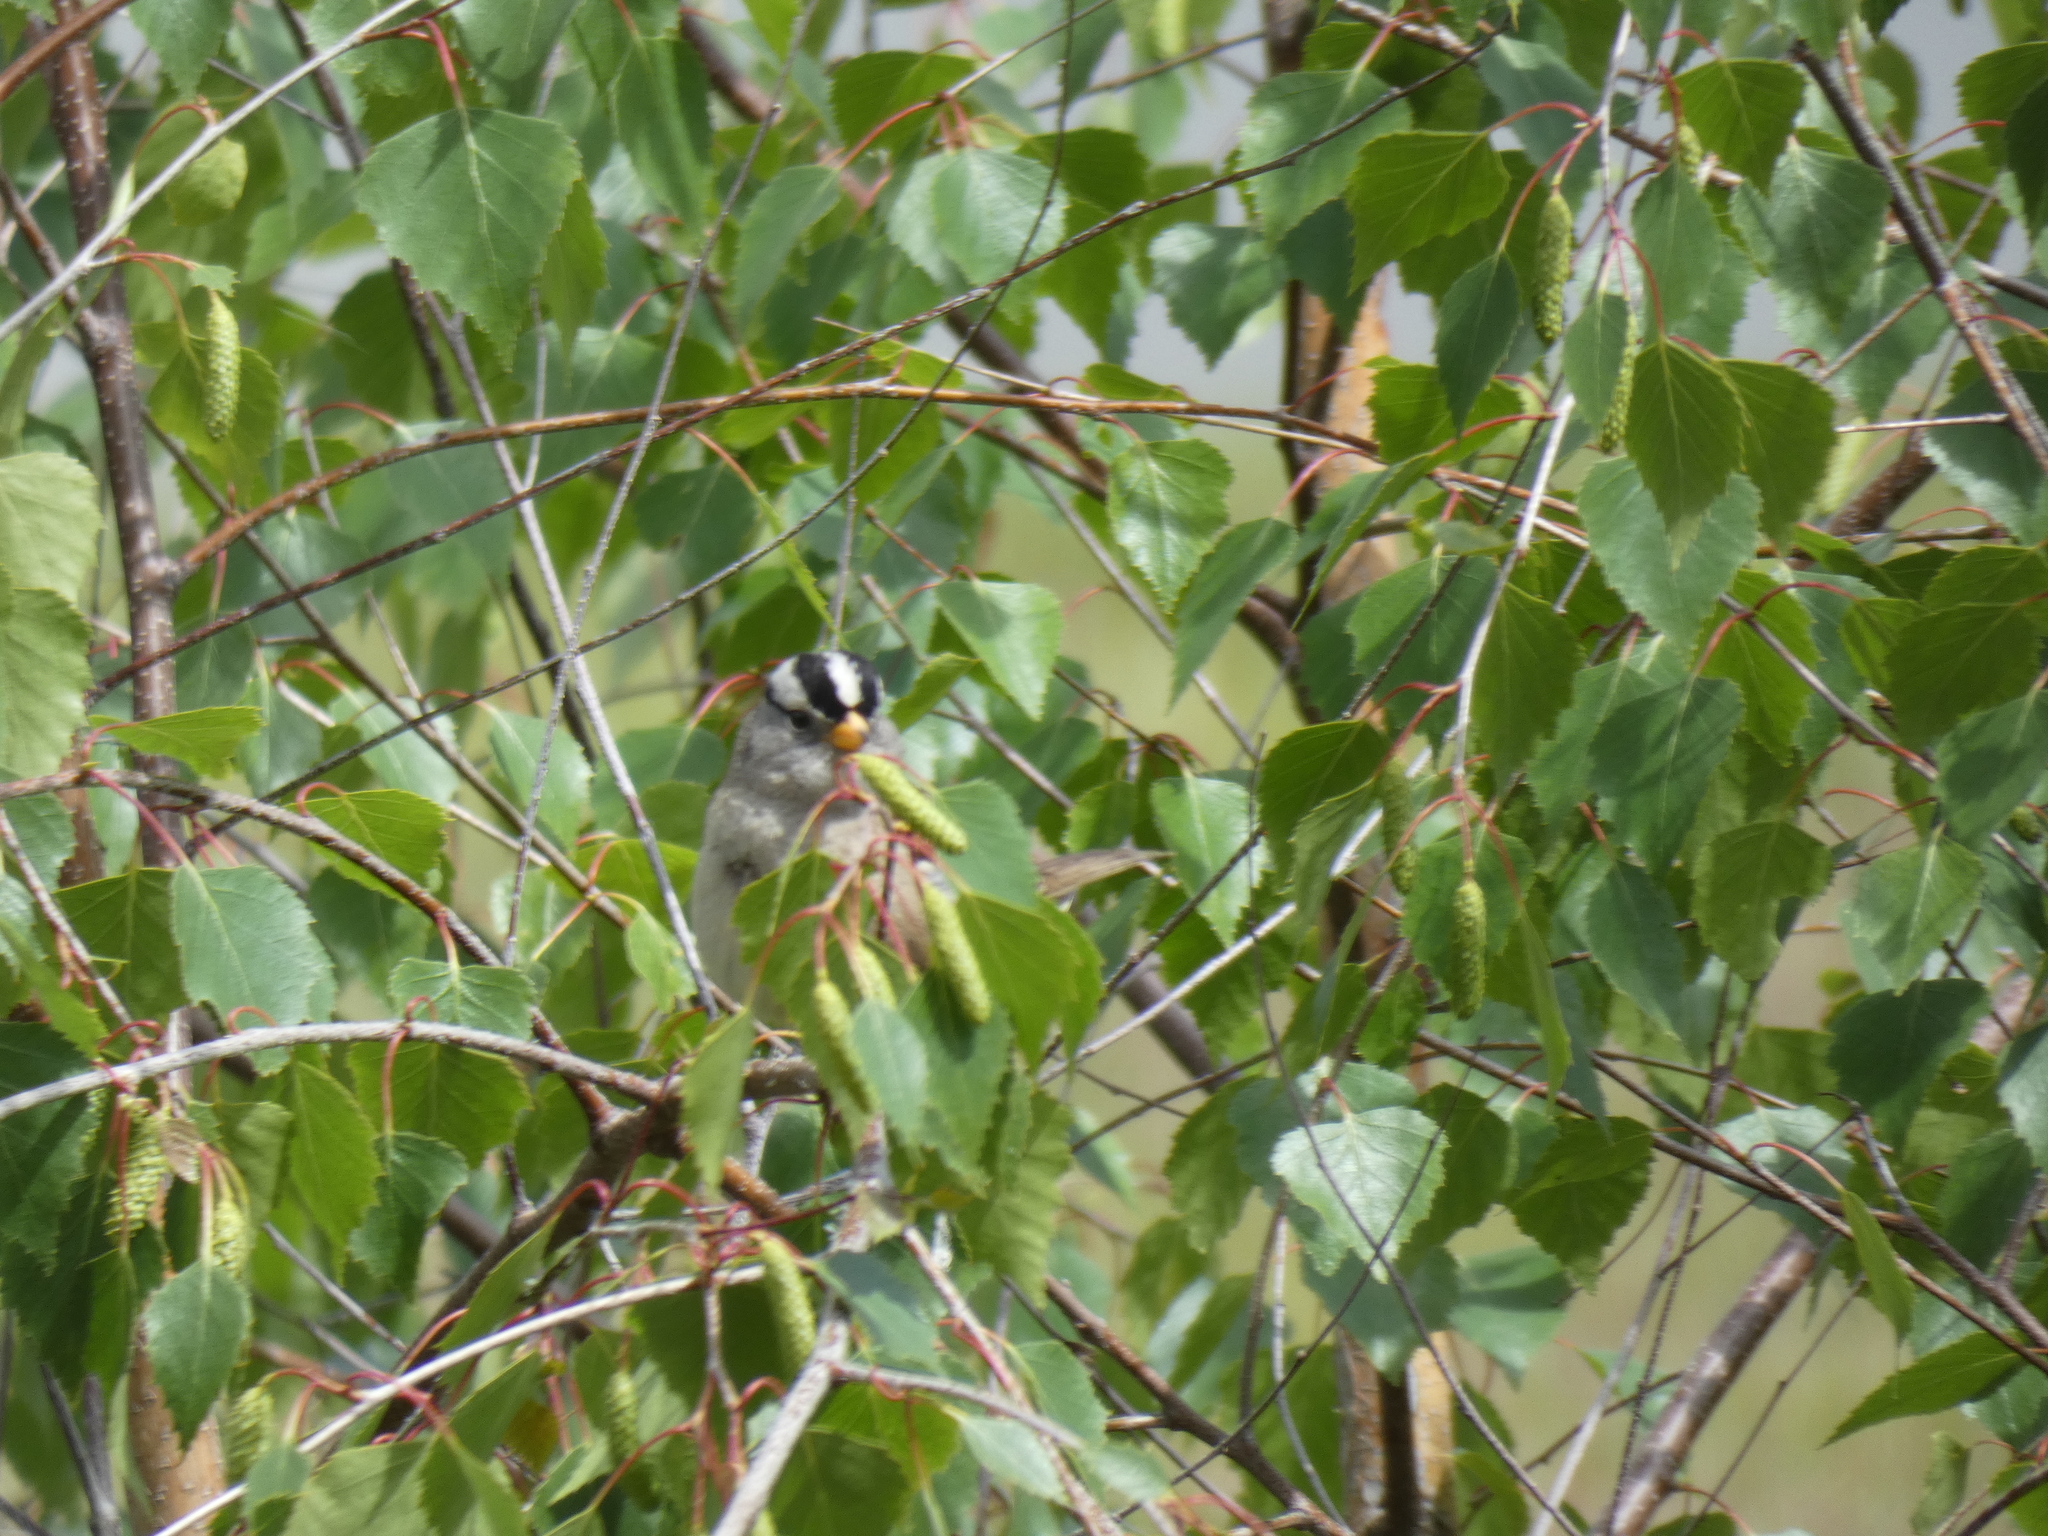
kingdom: Animalia
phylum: Chordata
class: Aves
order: Passeriformes
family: Passerellidae
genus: Zonotrichia
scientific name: Zonotrichia leucophrys
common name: White-crowned sparrow
